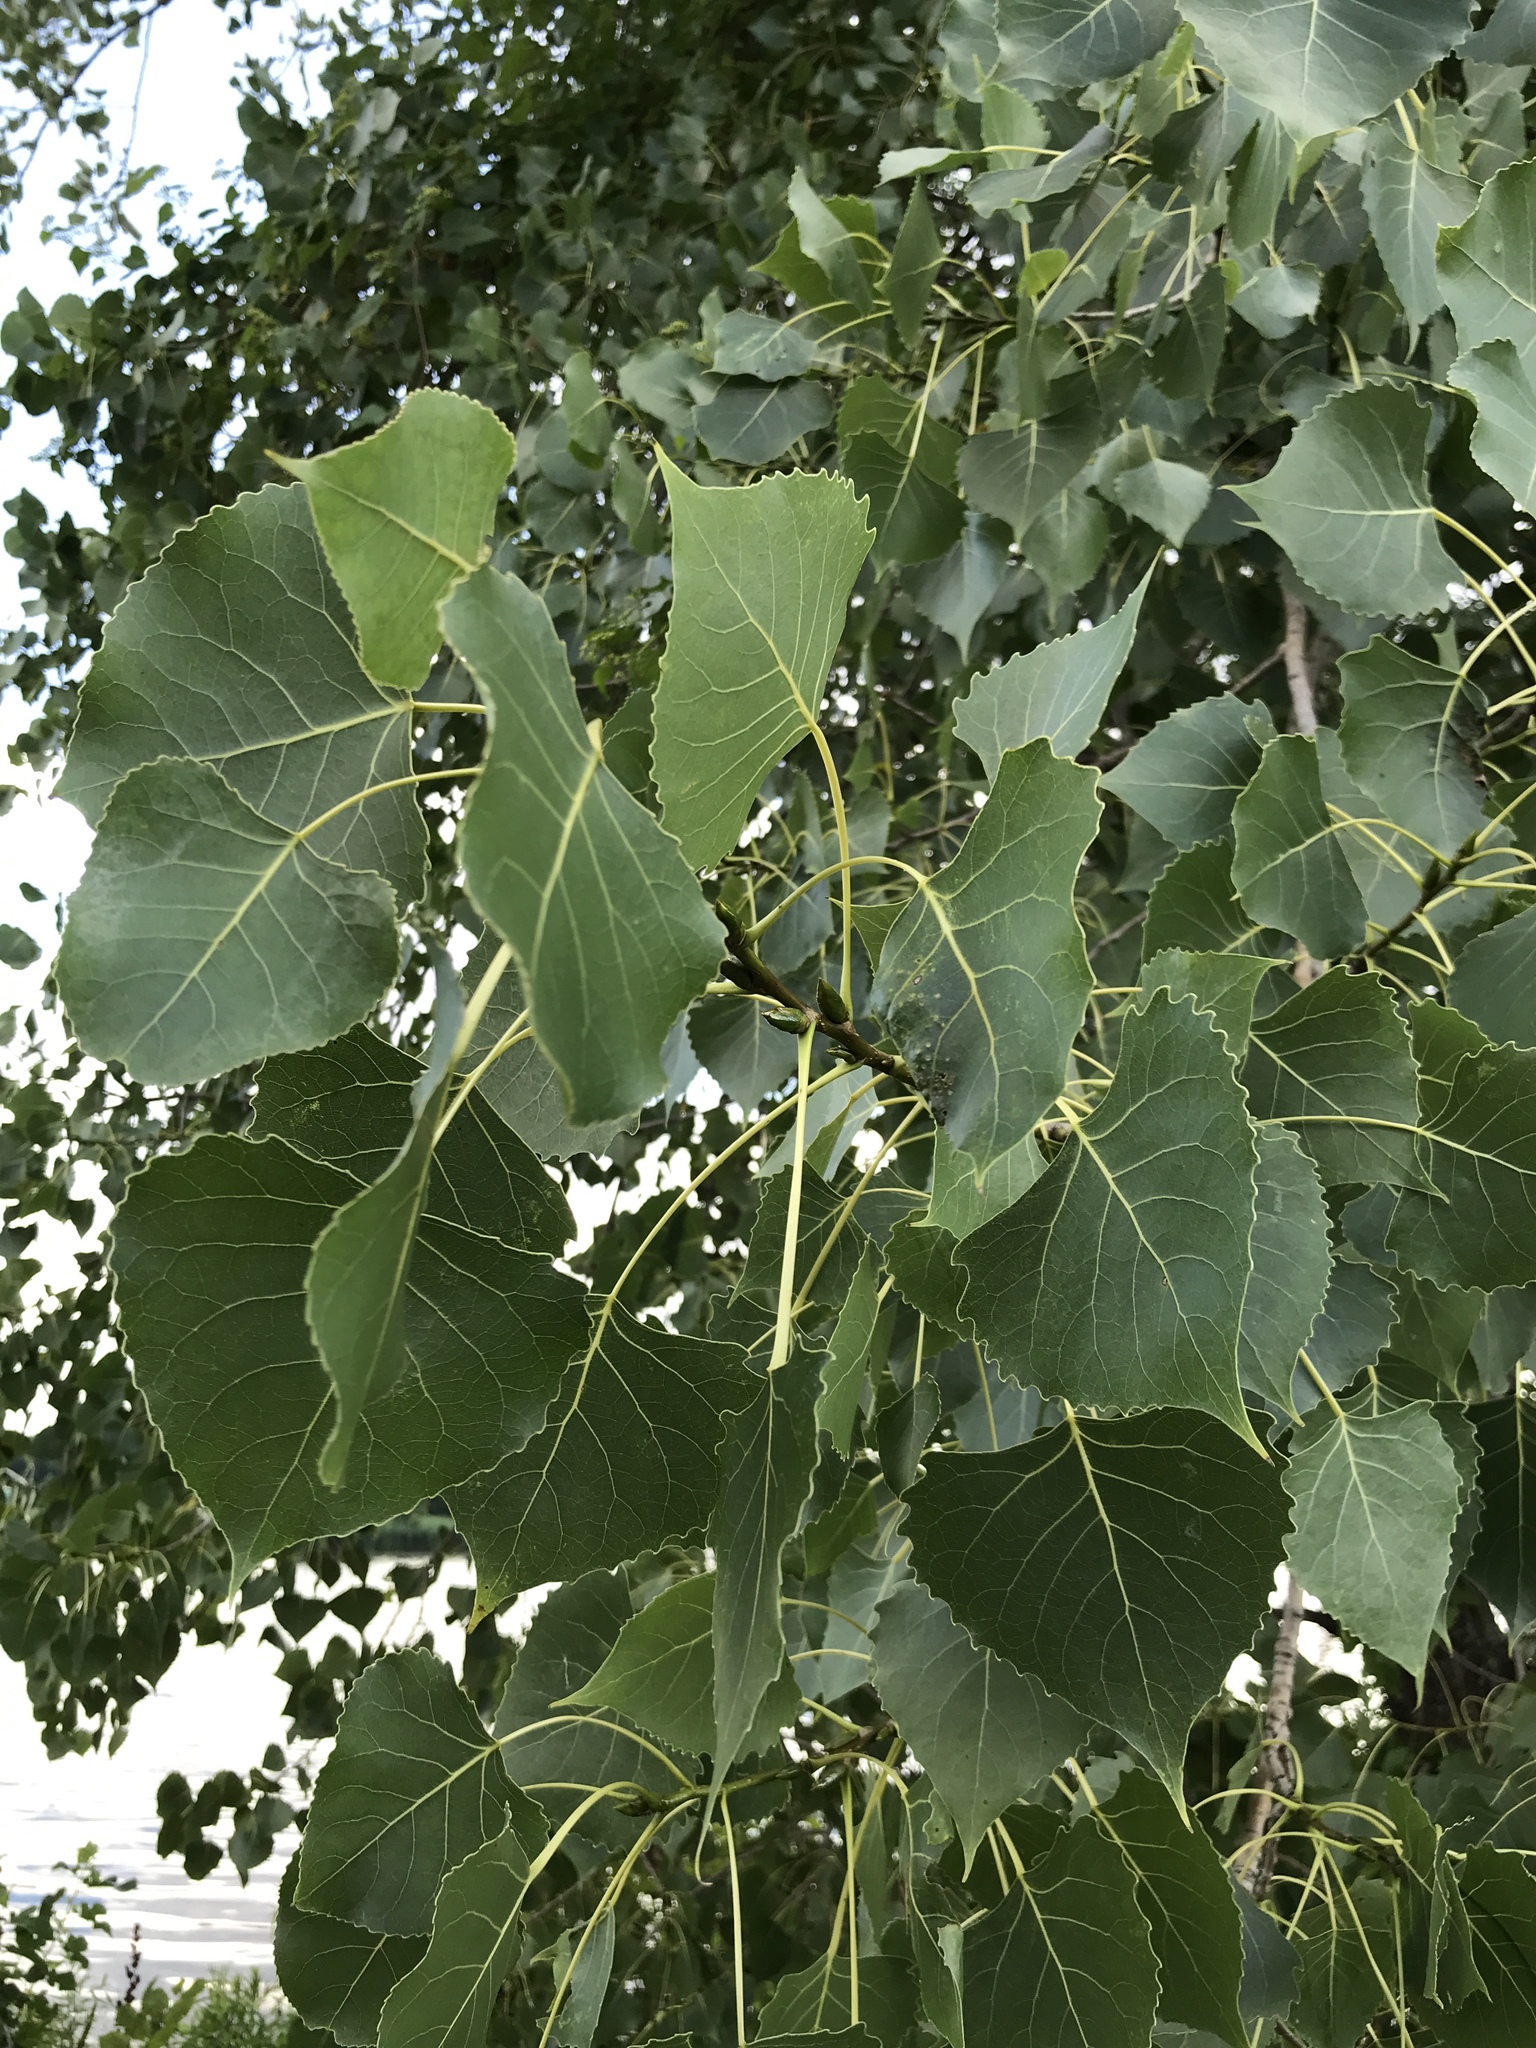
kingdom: Plantae
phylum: Tracheophyta
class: Magnoliopsida
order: Malpighiales
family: Salicaceae
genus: Populus
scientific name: Populus deltoides
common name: Eastern cottonwood
